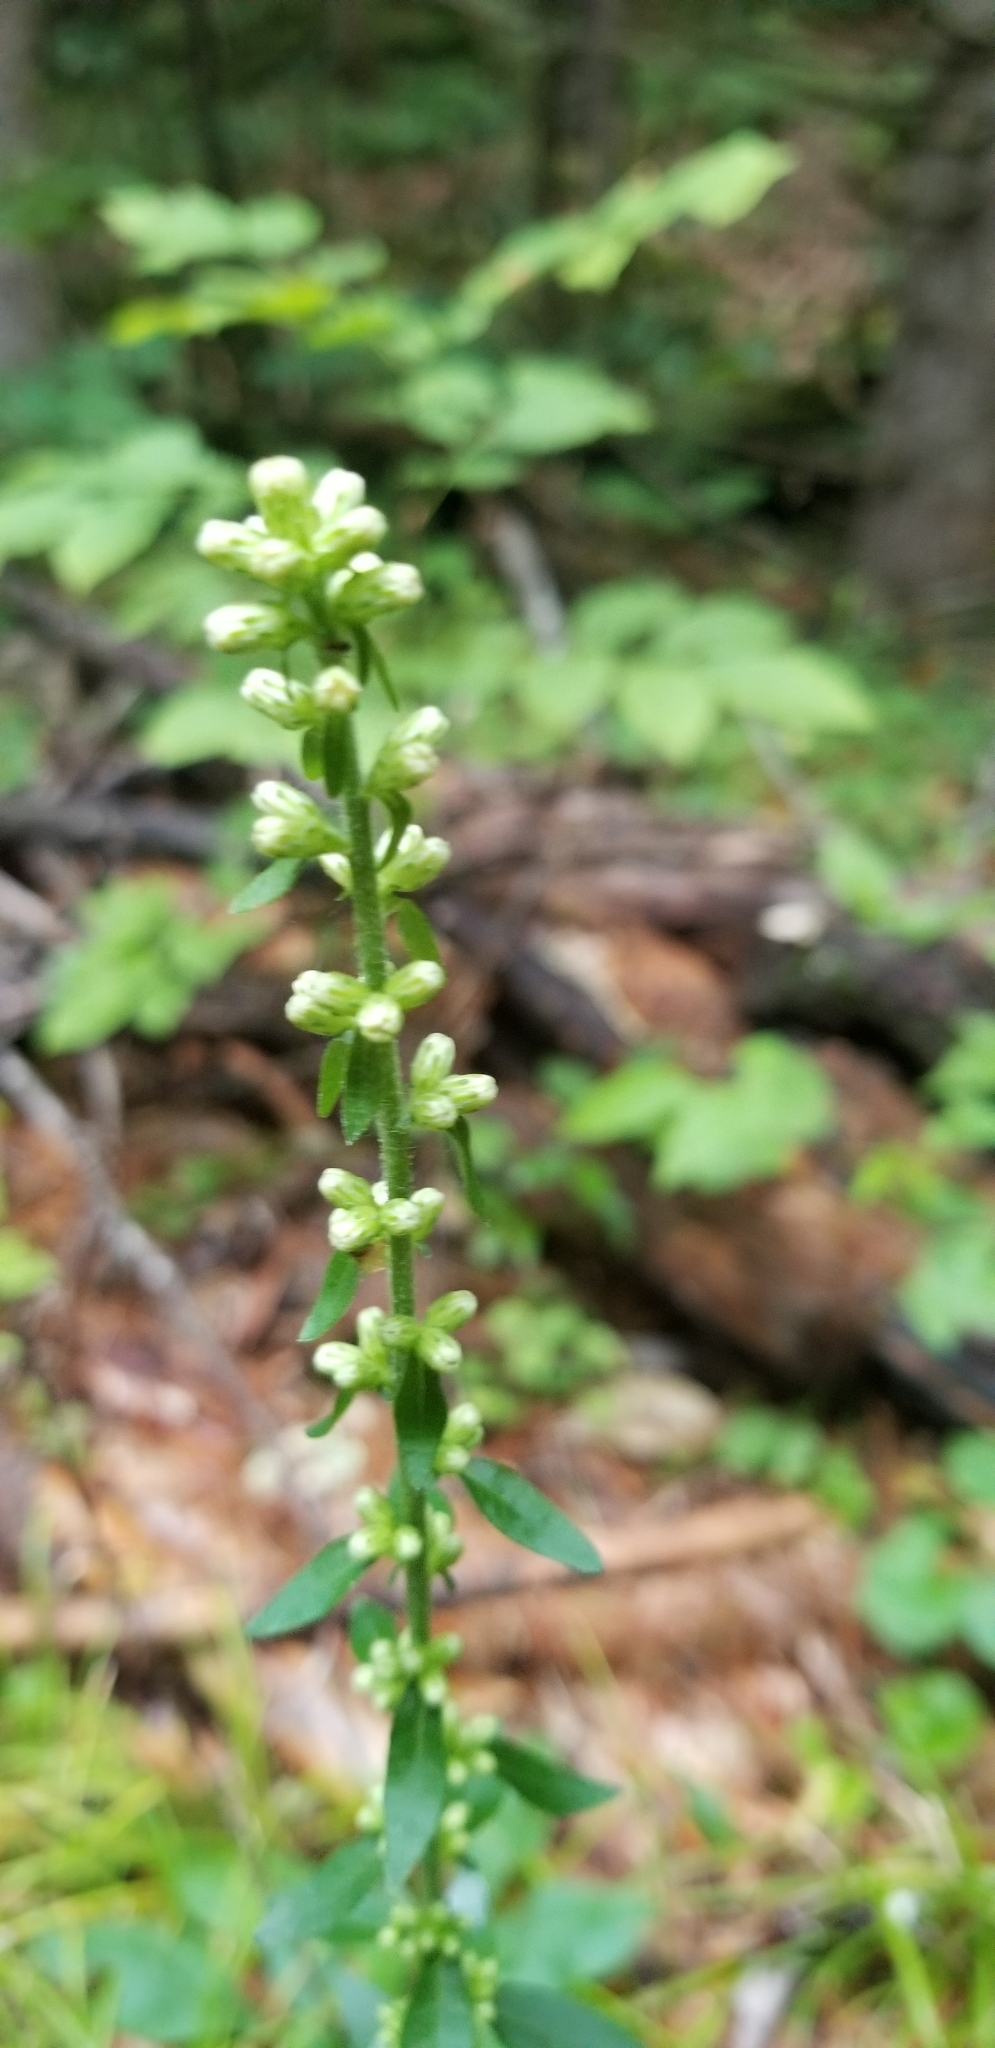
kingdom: Plantae
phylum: Tracheophyta
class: Magnoliopsida
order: Asterales
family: Asteraceae
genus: Solidago
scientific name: Solidago bicolor
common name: Silverrod
